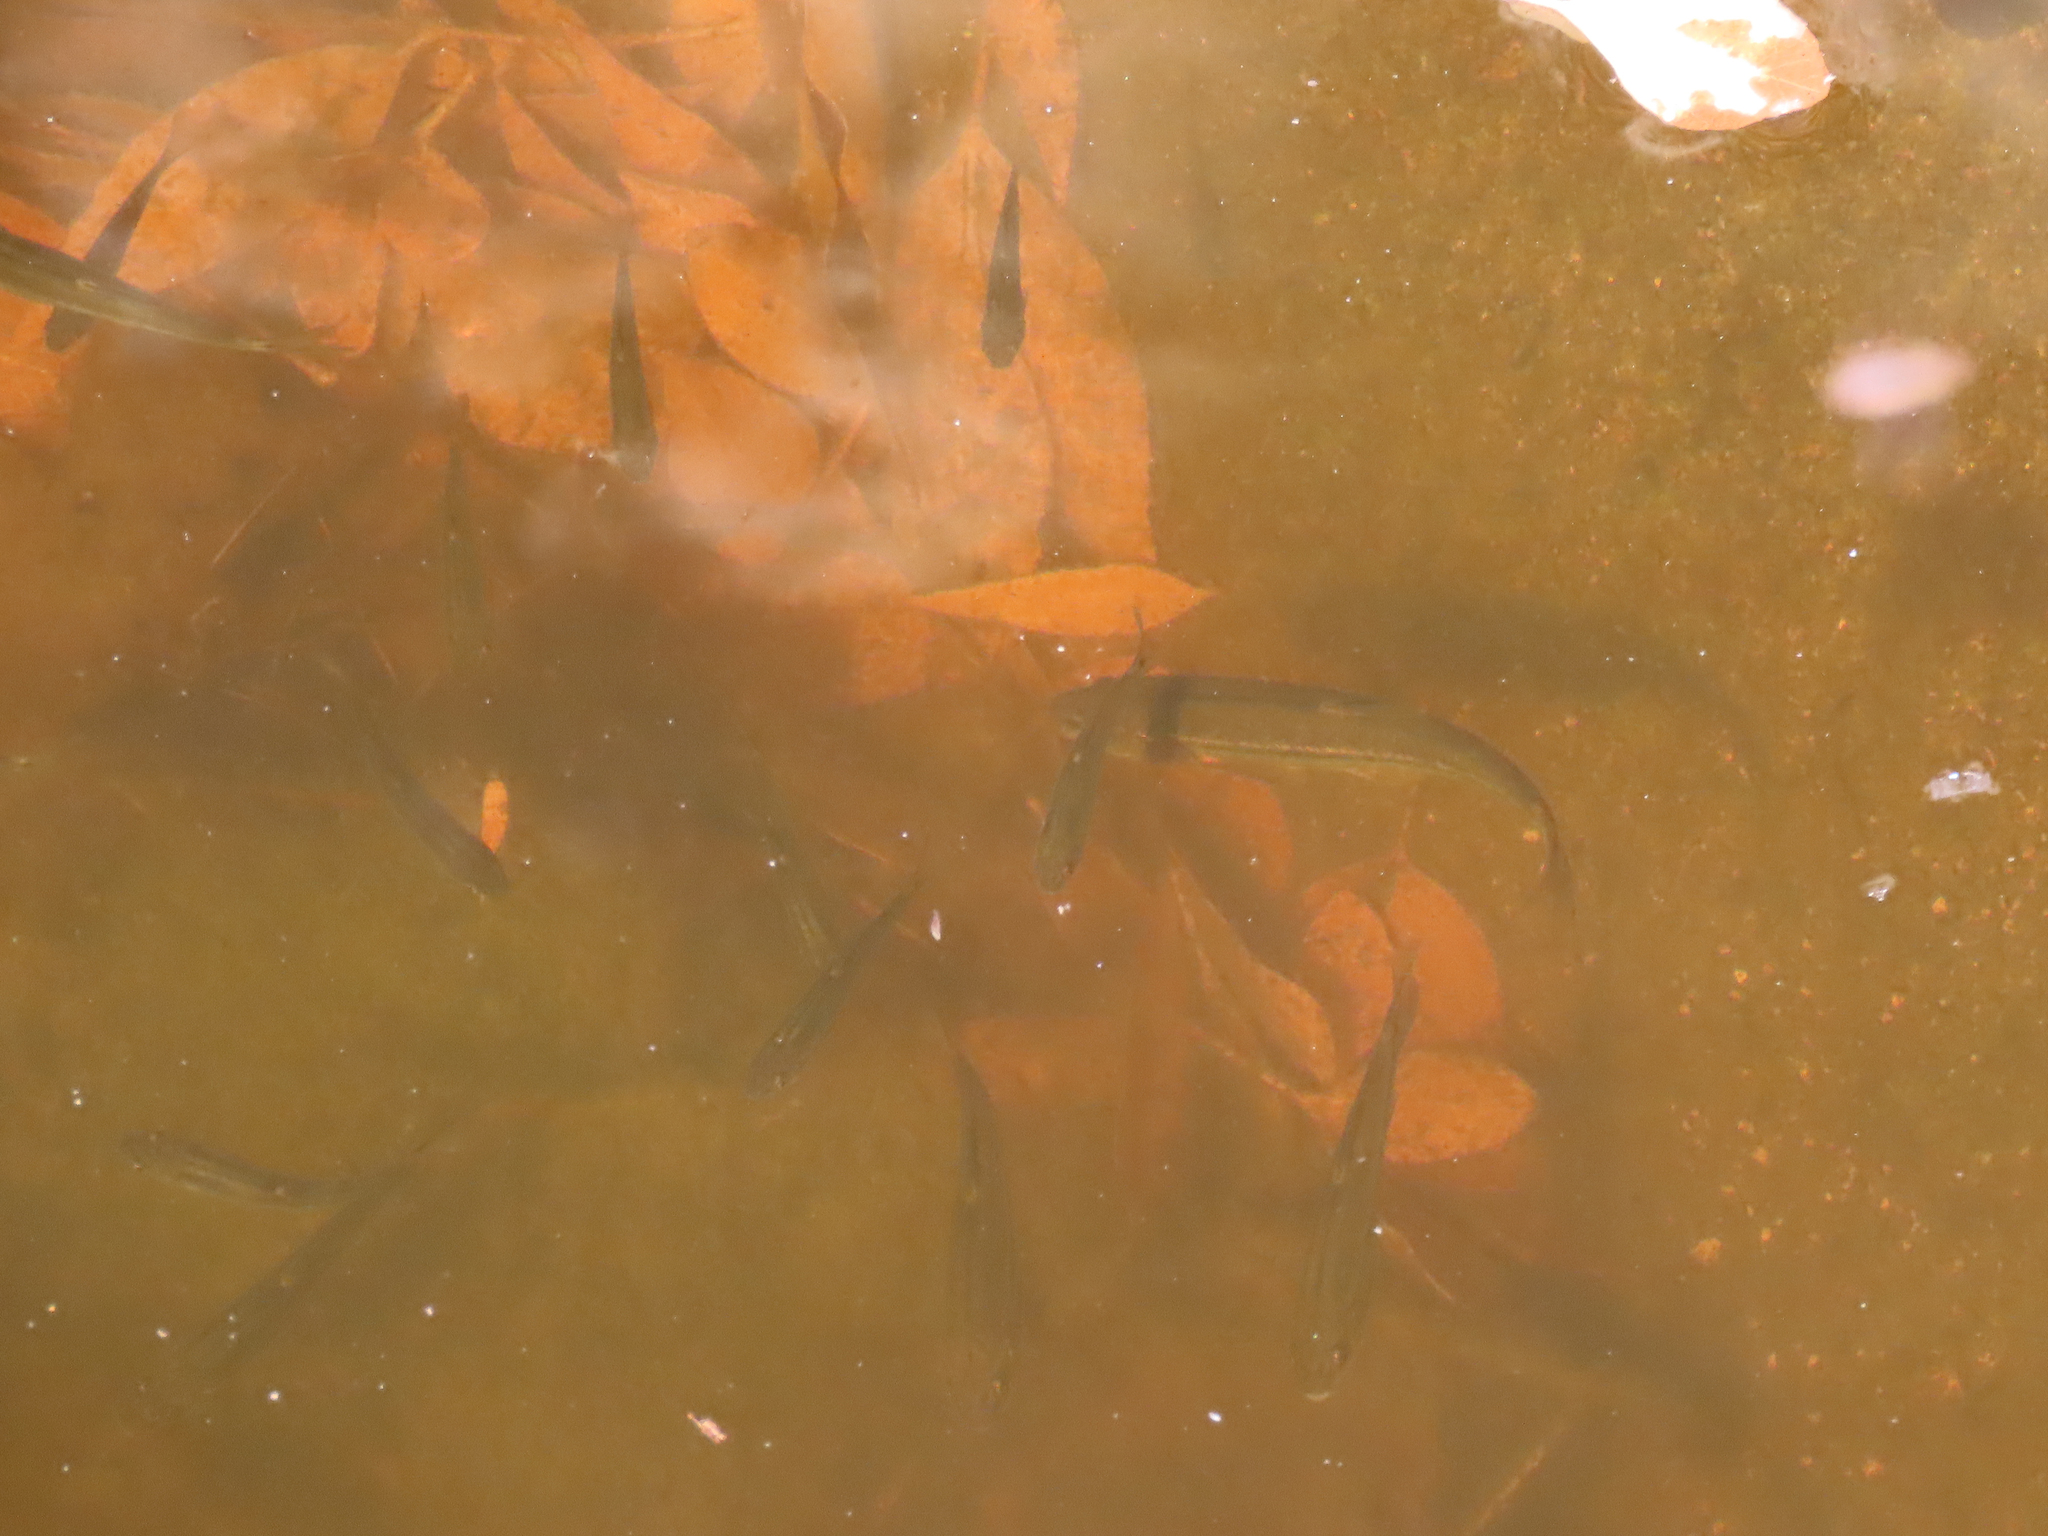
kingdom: Animalia
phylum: Chordata
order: Cypriniformes
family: Cyprinidae
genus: Gila
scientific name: Gila ditaenia
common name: Sonora chub
